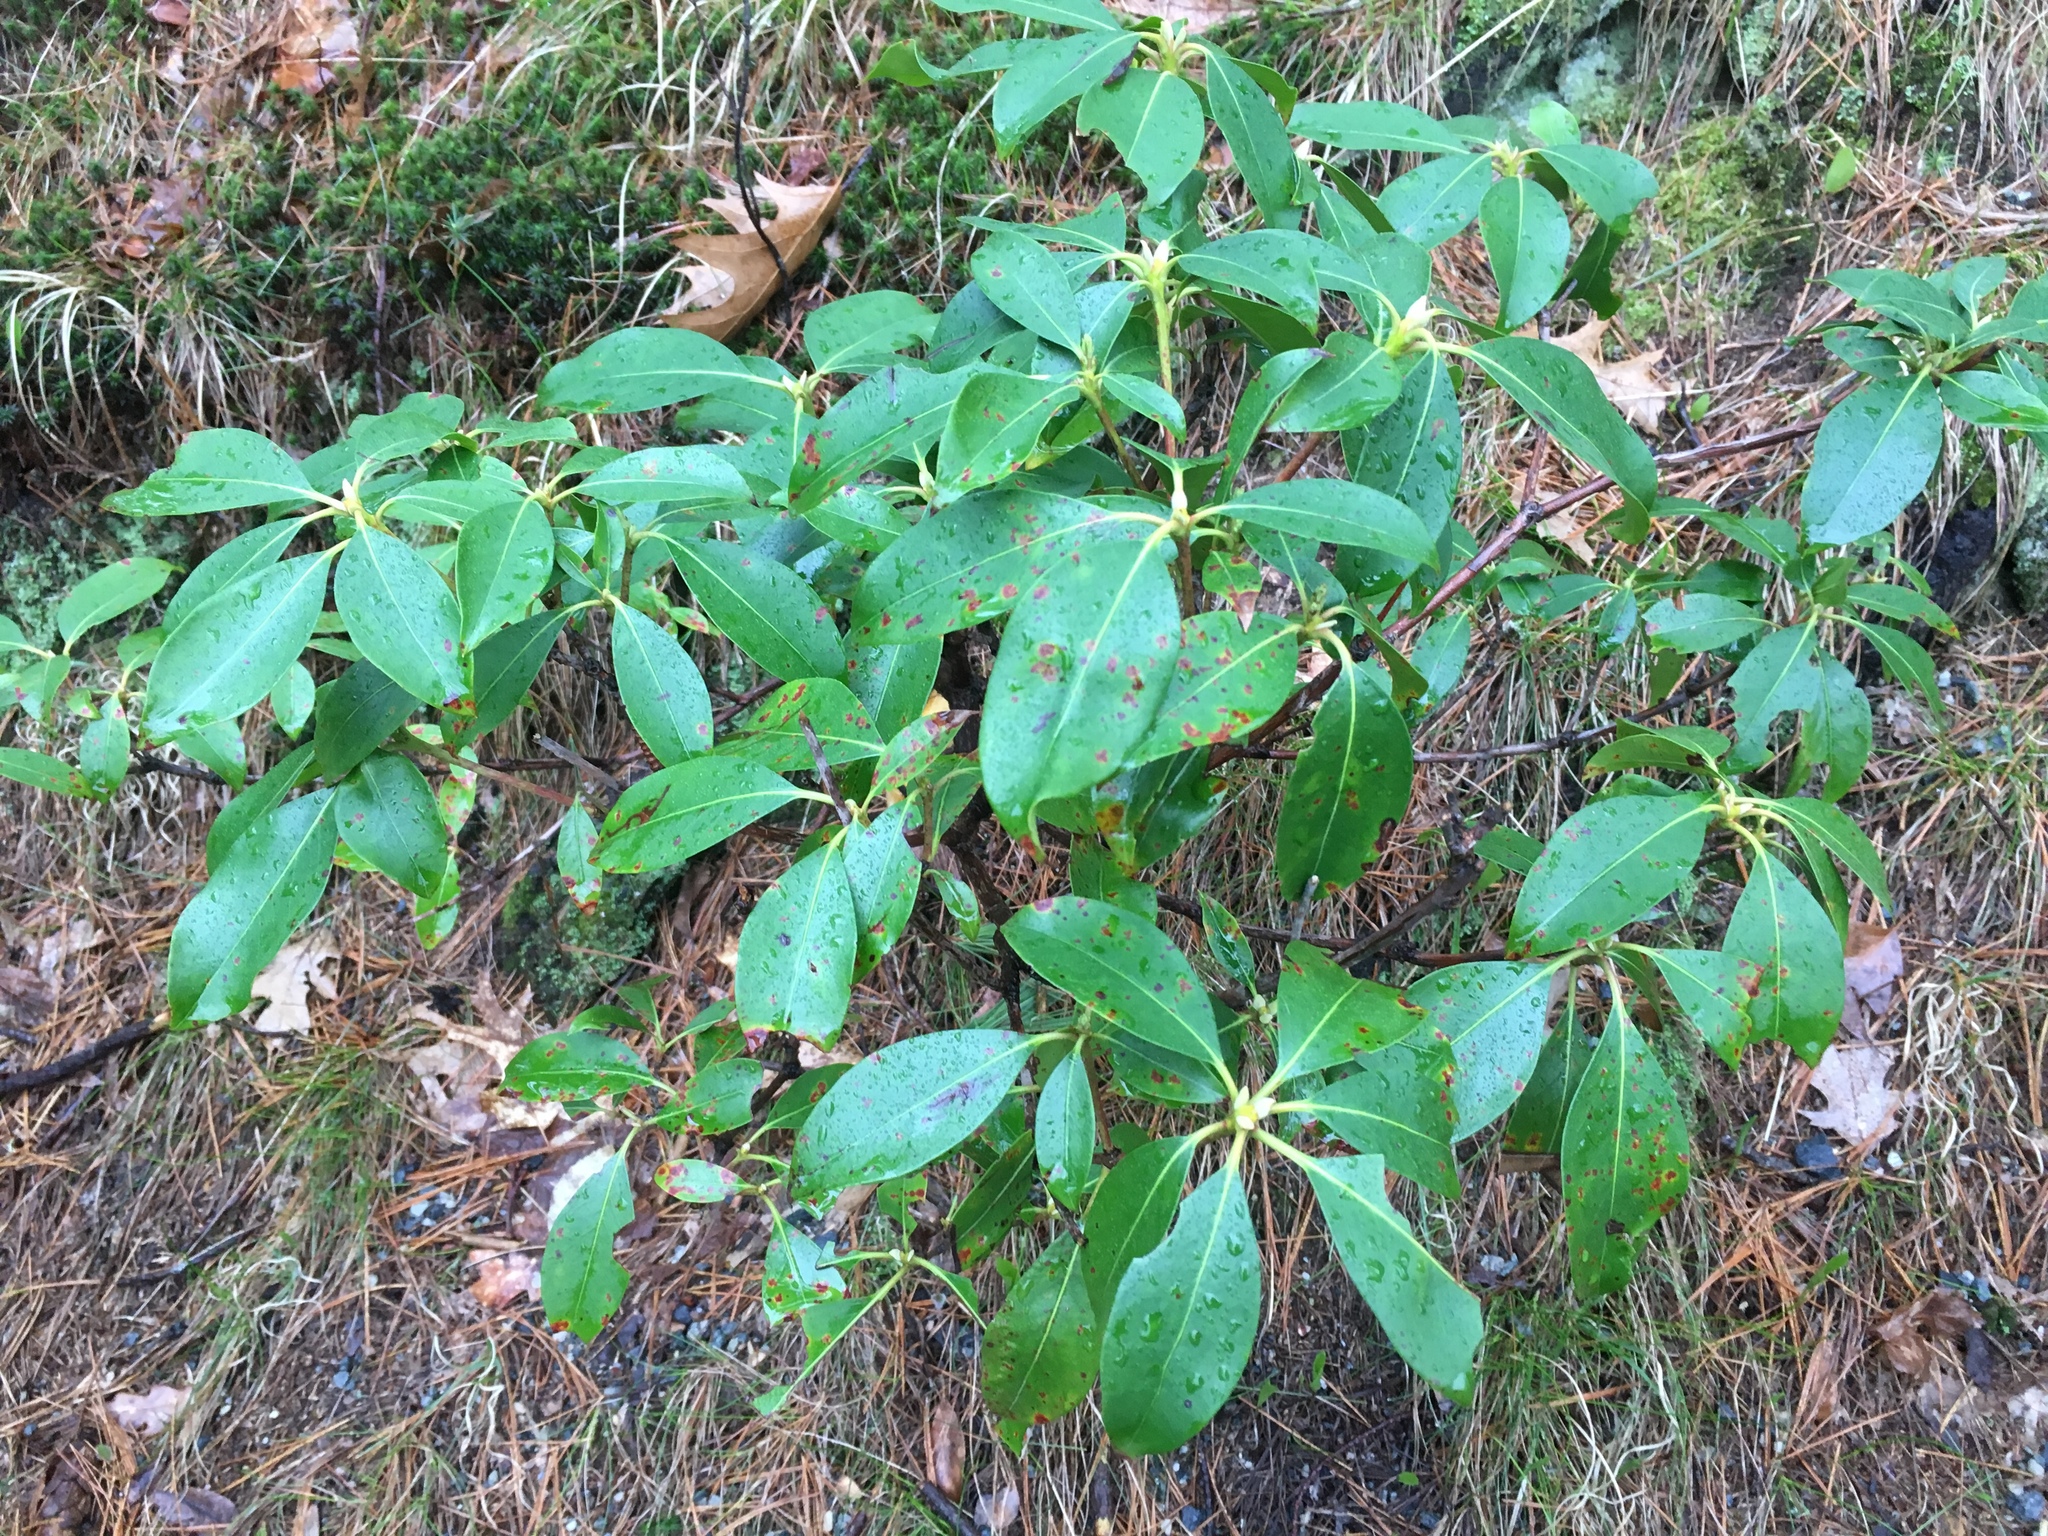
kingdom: Plantae
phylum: Tracheophyta
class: Magnoliopsida
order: Ericales
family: Ericaceae
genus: Kalmia
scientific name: Kalmia latifolia
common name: Mountain-laurel
